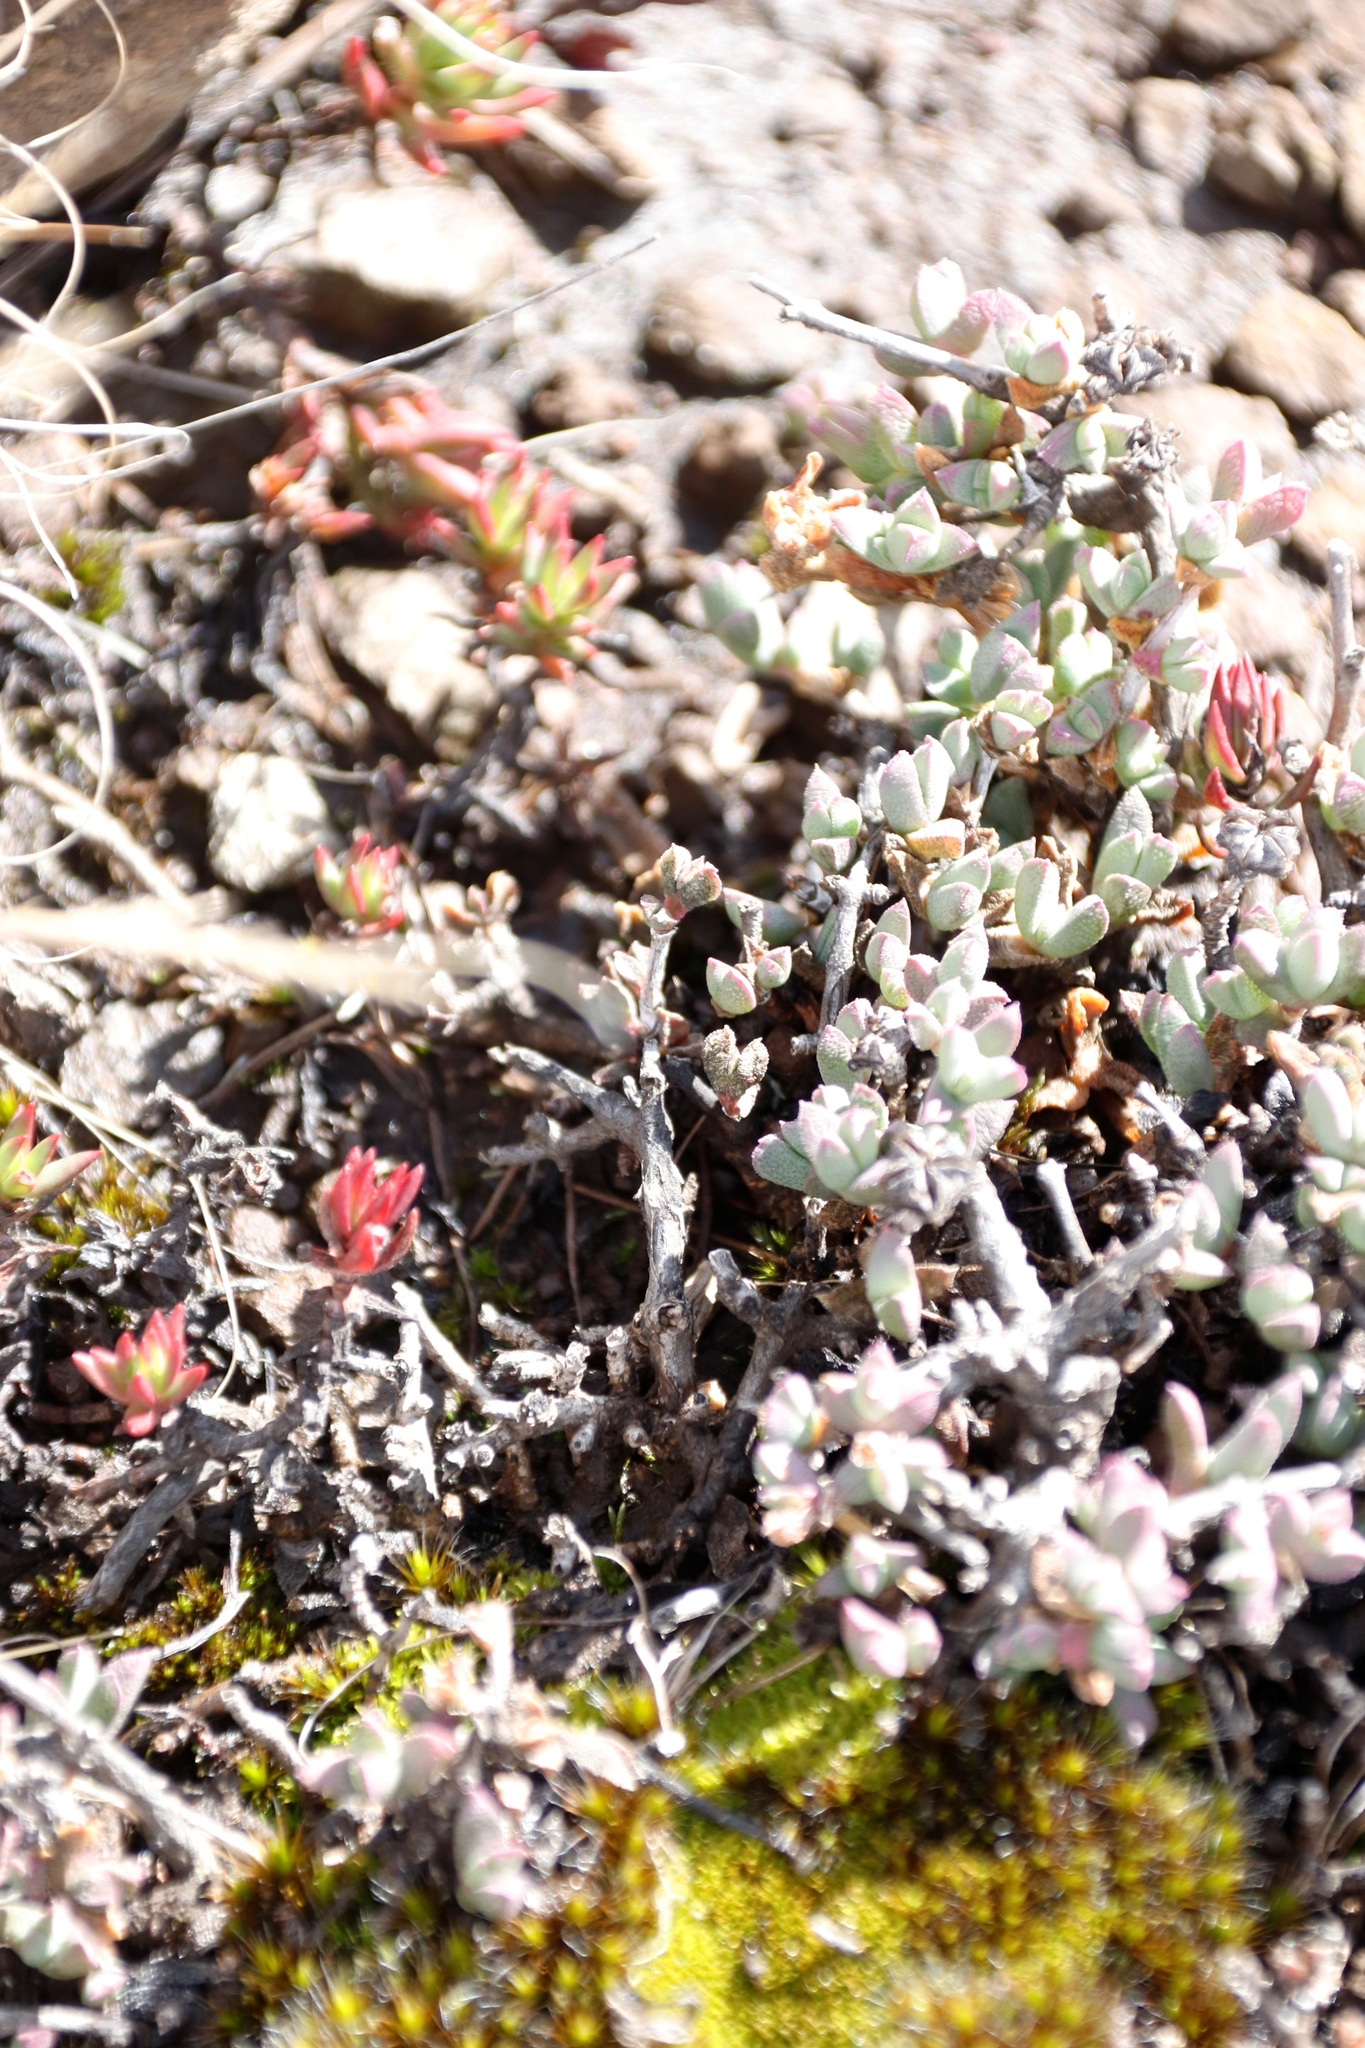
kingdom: Plantae
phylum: Tracheophyta
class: Magnoliopsida
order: Caryophyllales
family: Aizoaceae
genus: Ruschia
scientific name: Ruschia putterillii
